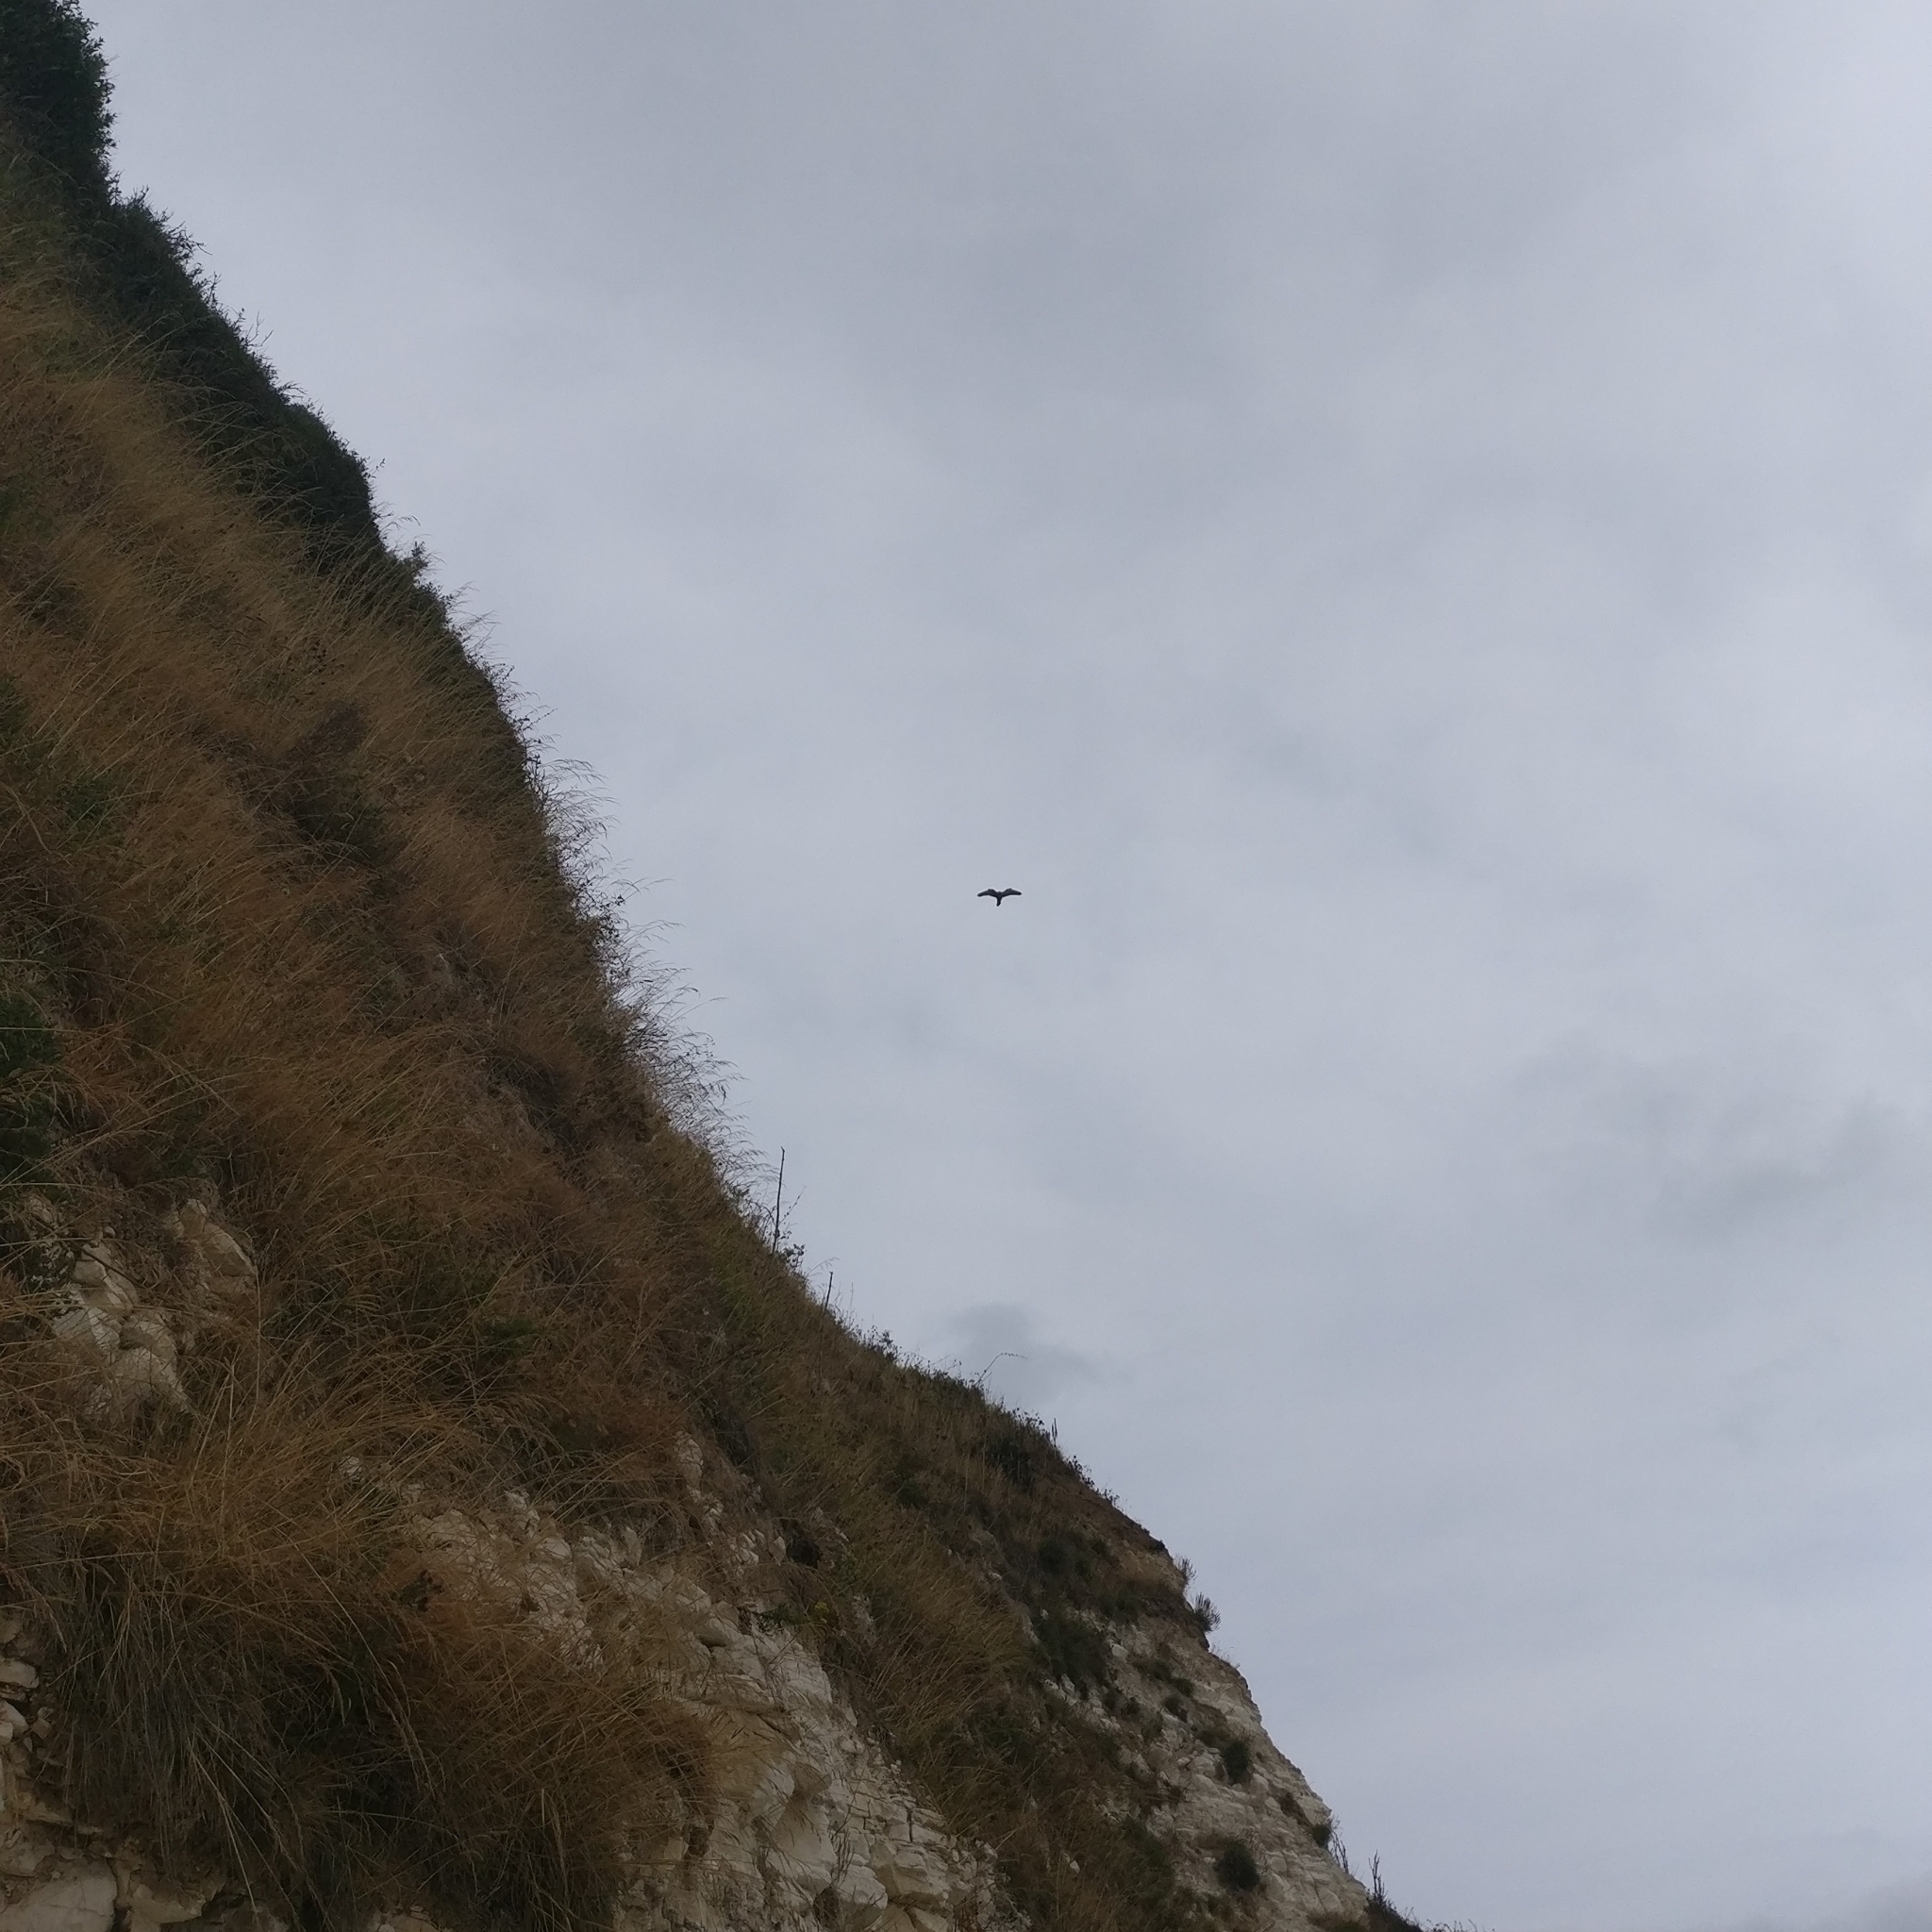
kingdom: Animalia
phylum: Chordata
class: Aves
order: Falconiformes
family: Falconidae
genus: Falco
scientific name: Falco tinnunculus
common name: Common kestrel
